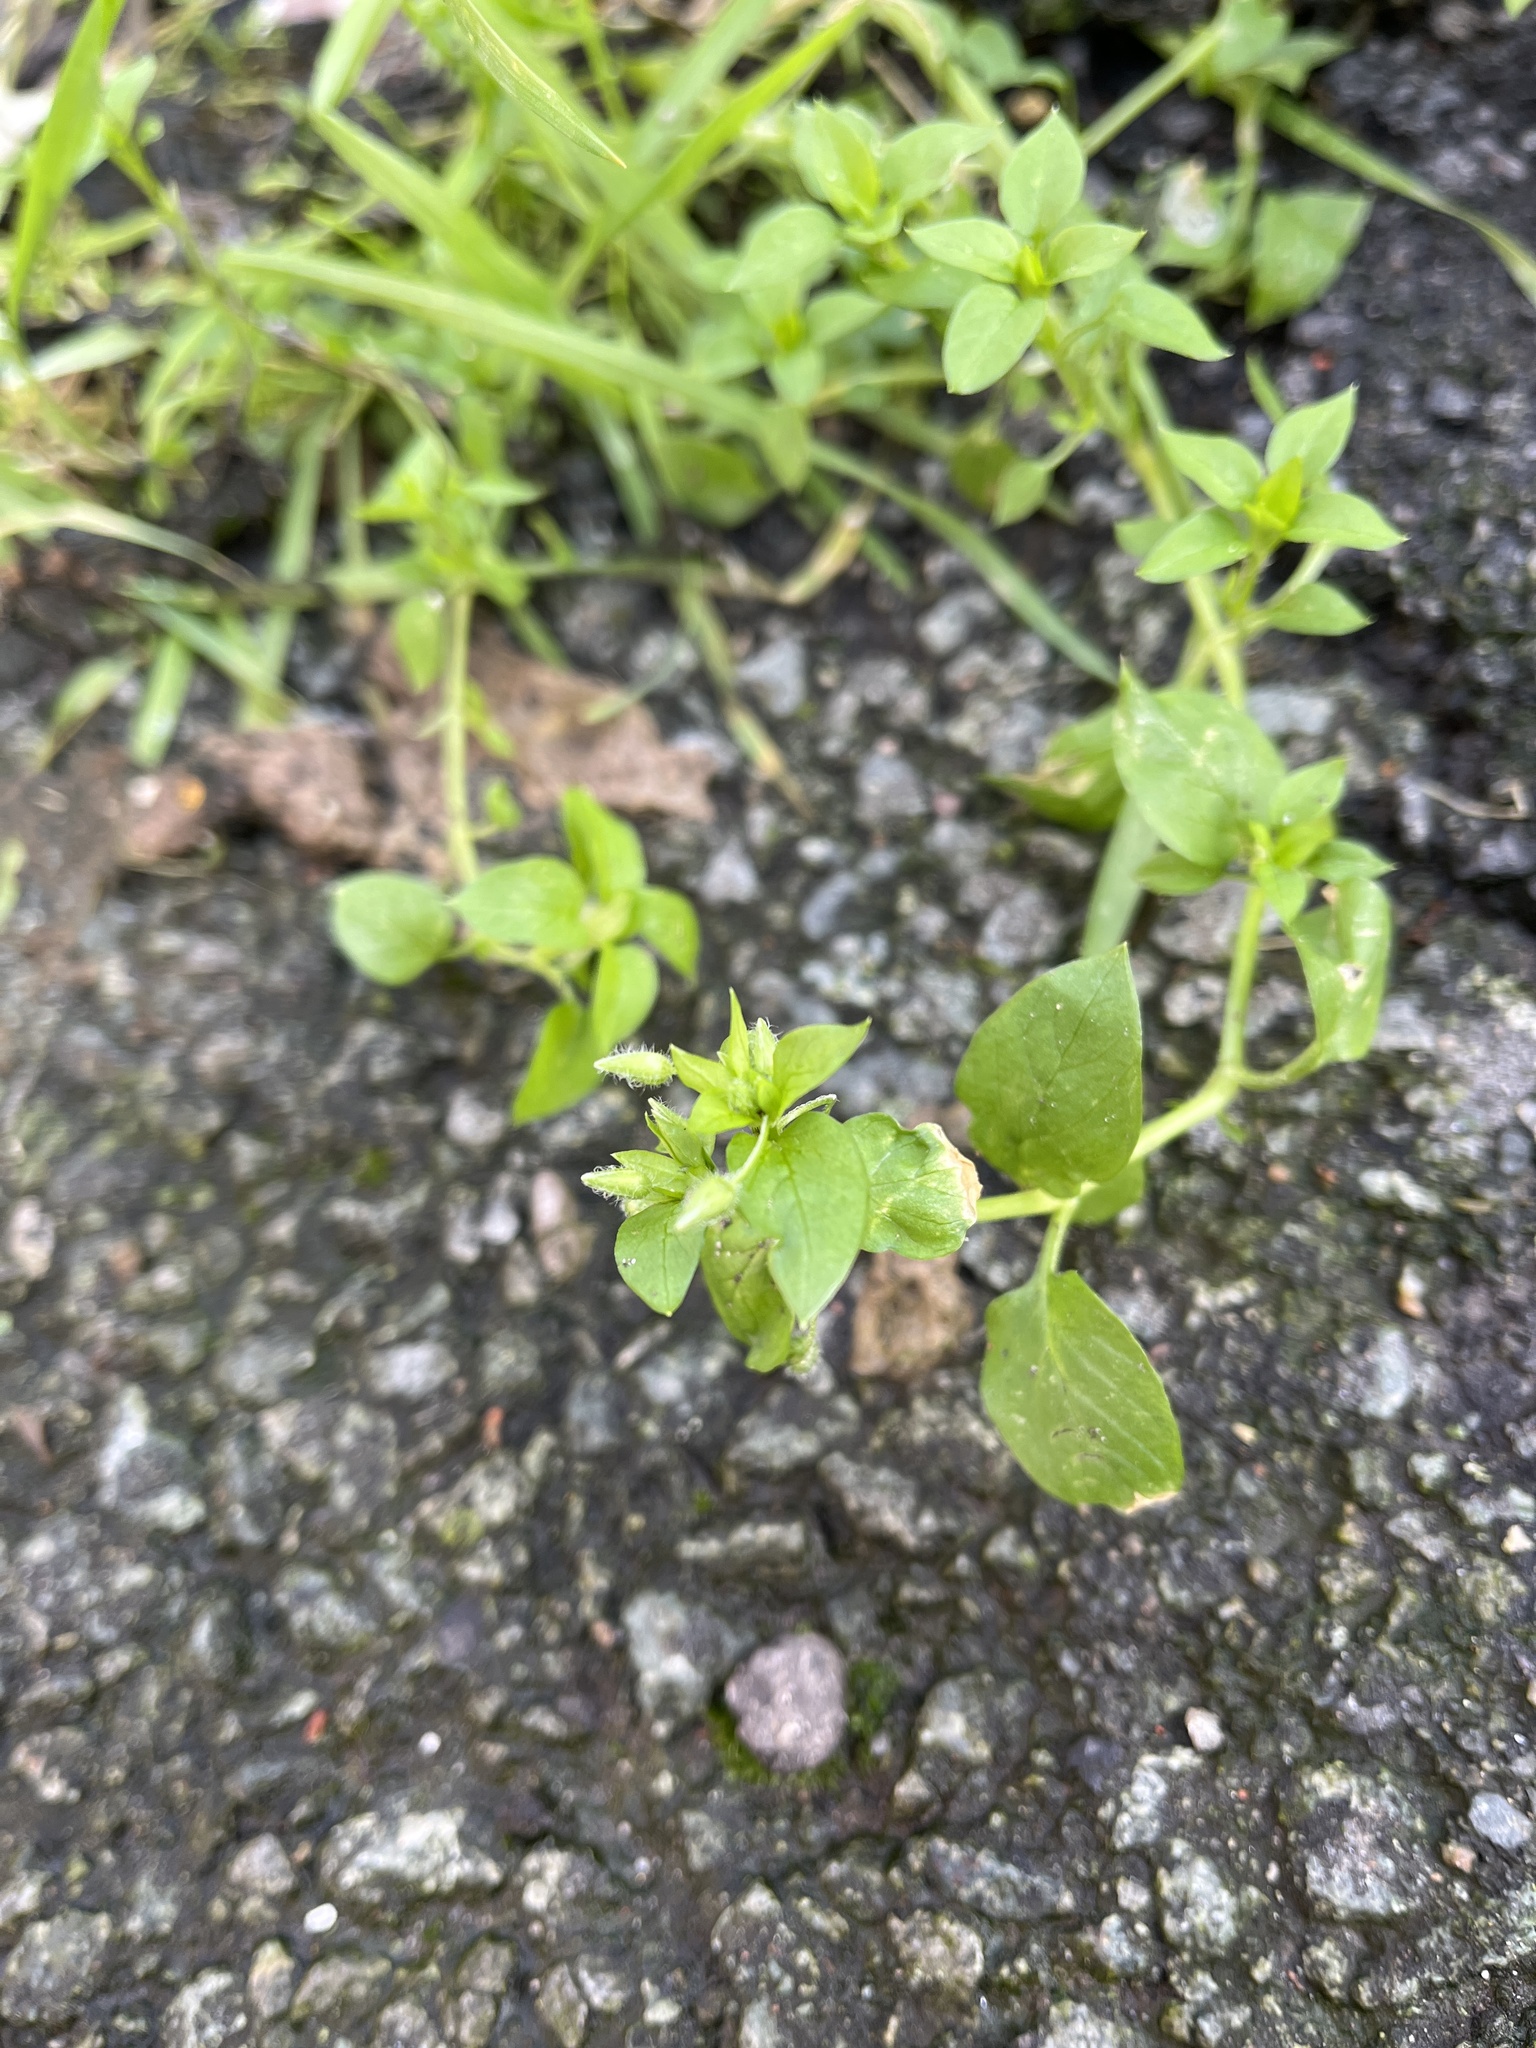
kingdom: Plantae
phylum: Tracheophyta
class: Magnoliopsida
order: Caryophyllales
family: Caryophyllaceae
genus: Stellaria
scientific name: Stellaria media
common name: Common chickweed
